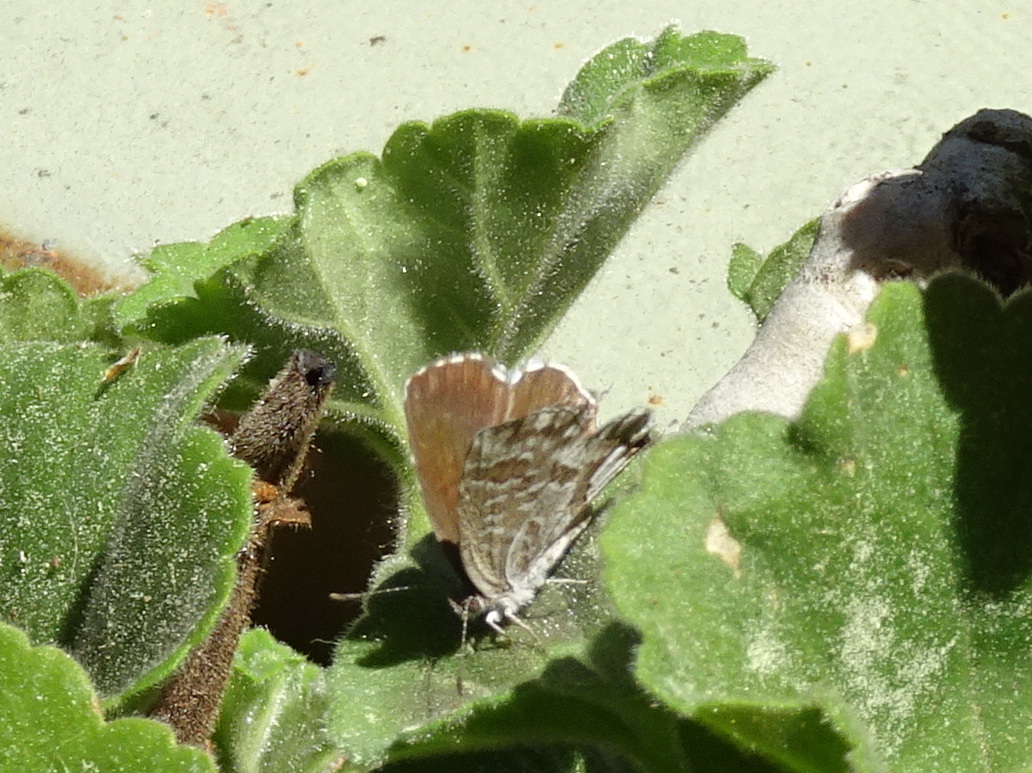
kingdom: Animalia
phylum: Arthropoda
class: Insecta
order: Lepidoptera
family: Lycaenidae
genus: Cacyreus
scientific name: Cacyreus marshalli
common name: Geranium bronze
